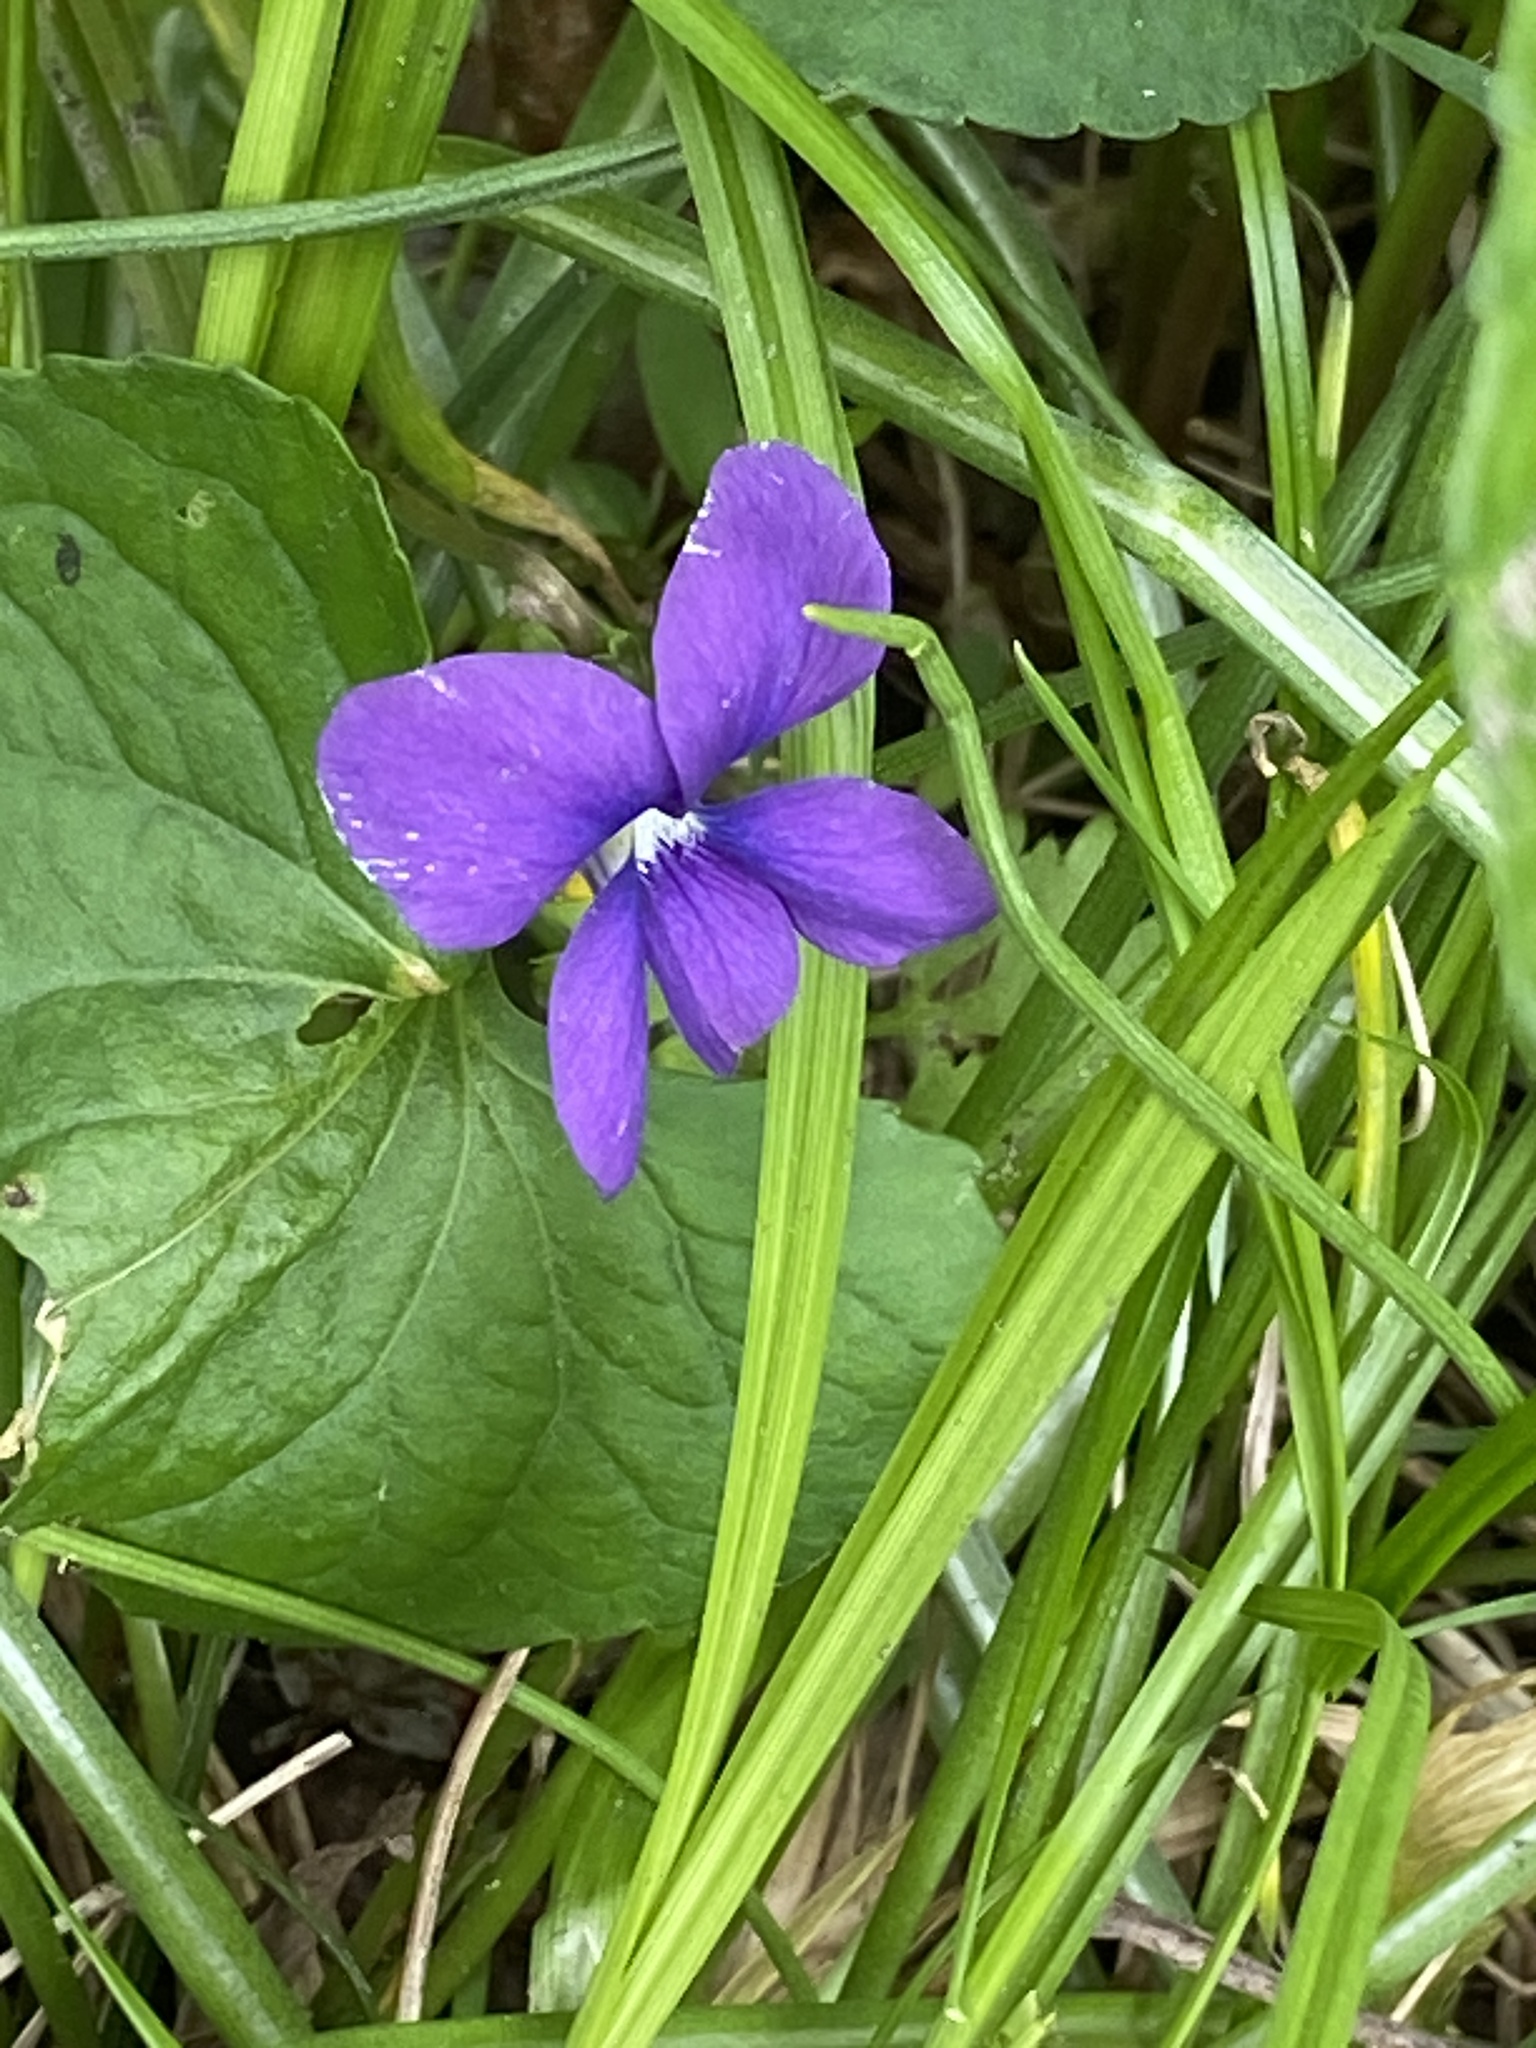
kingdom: Plantae
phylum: Tracheophyta
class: Magnoliopsida
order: Malpighiales
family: Violaceae
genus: Viola
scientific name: Viola sororia
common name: Dooryard violet
